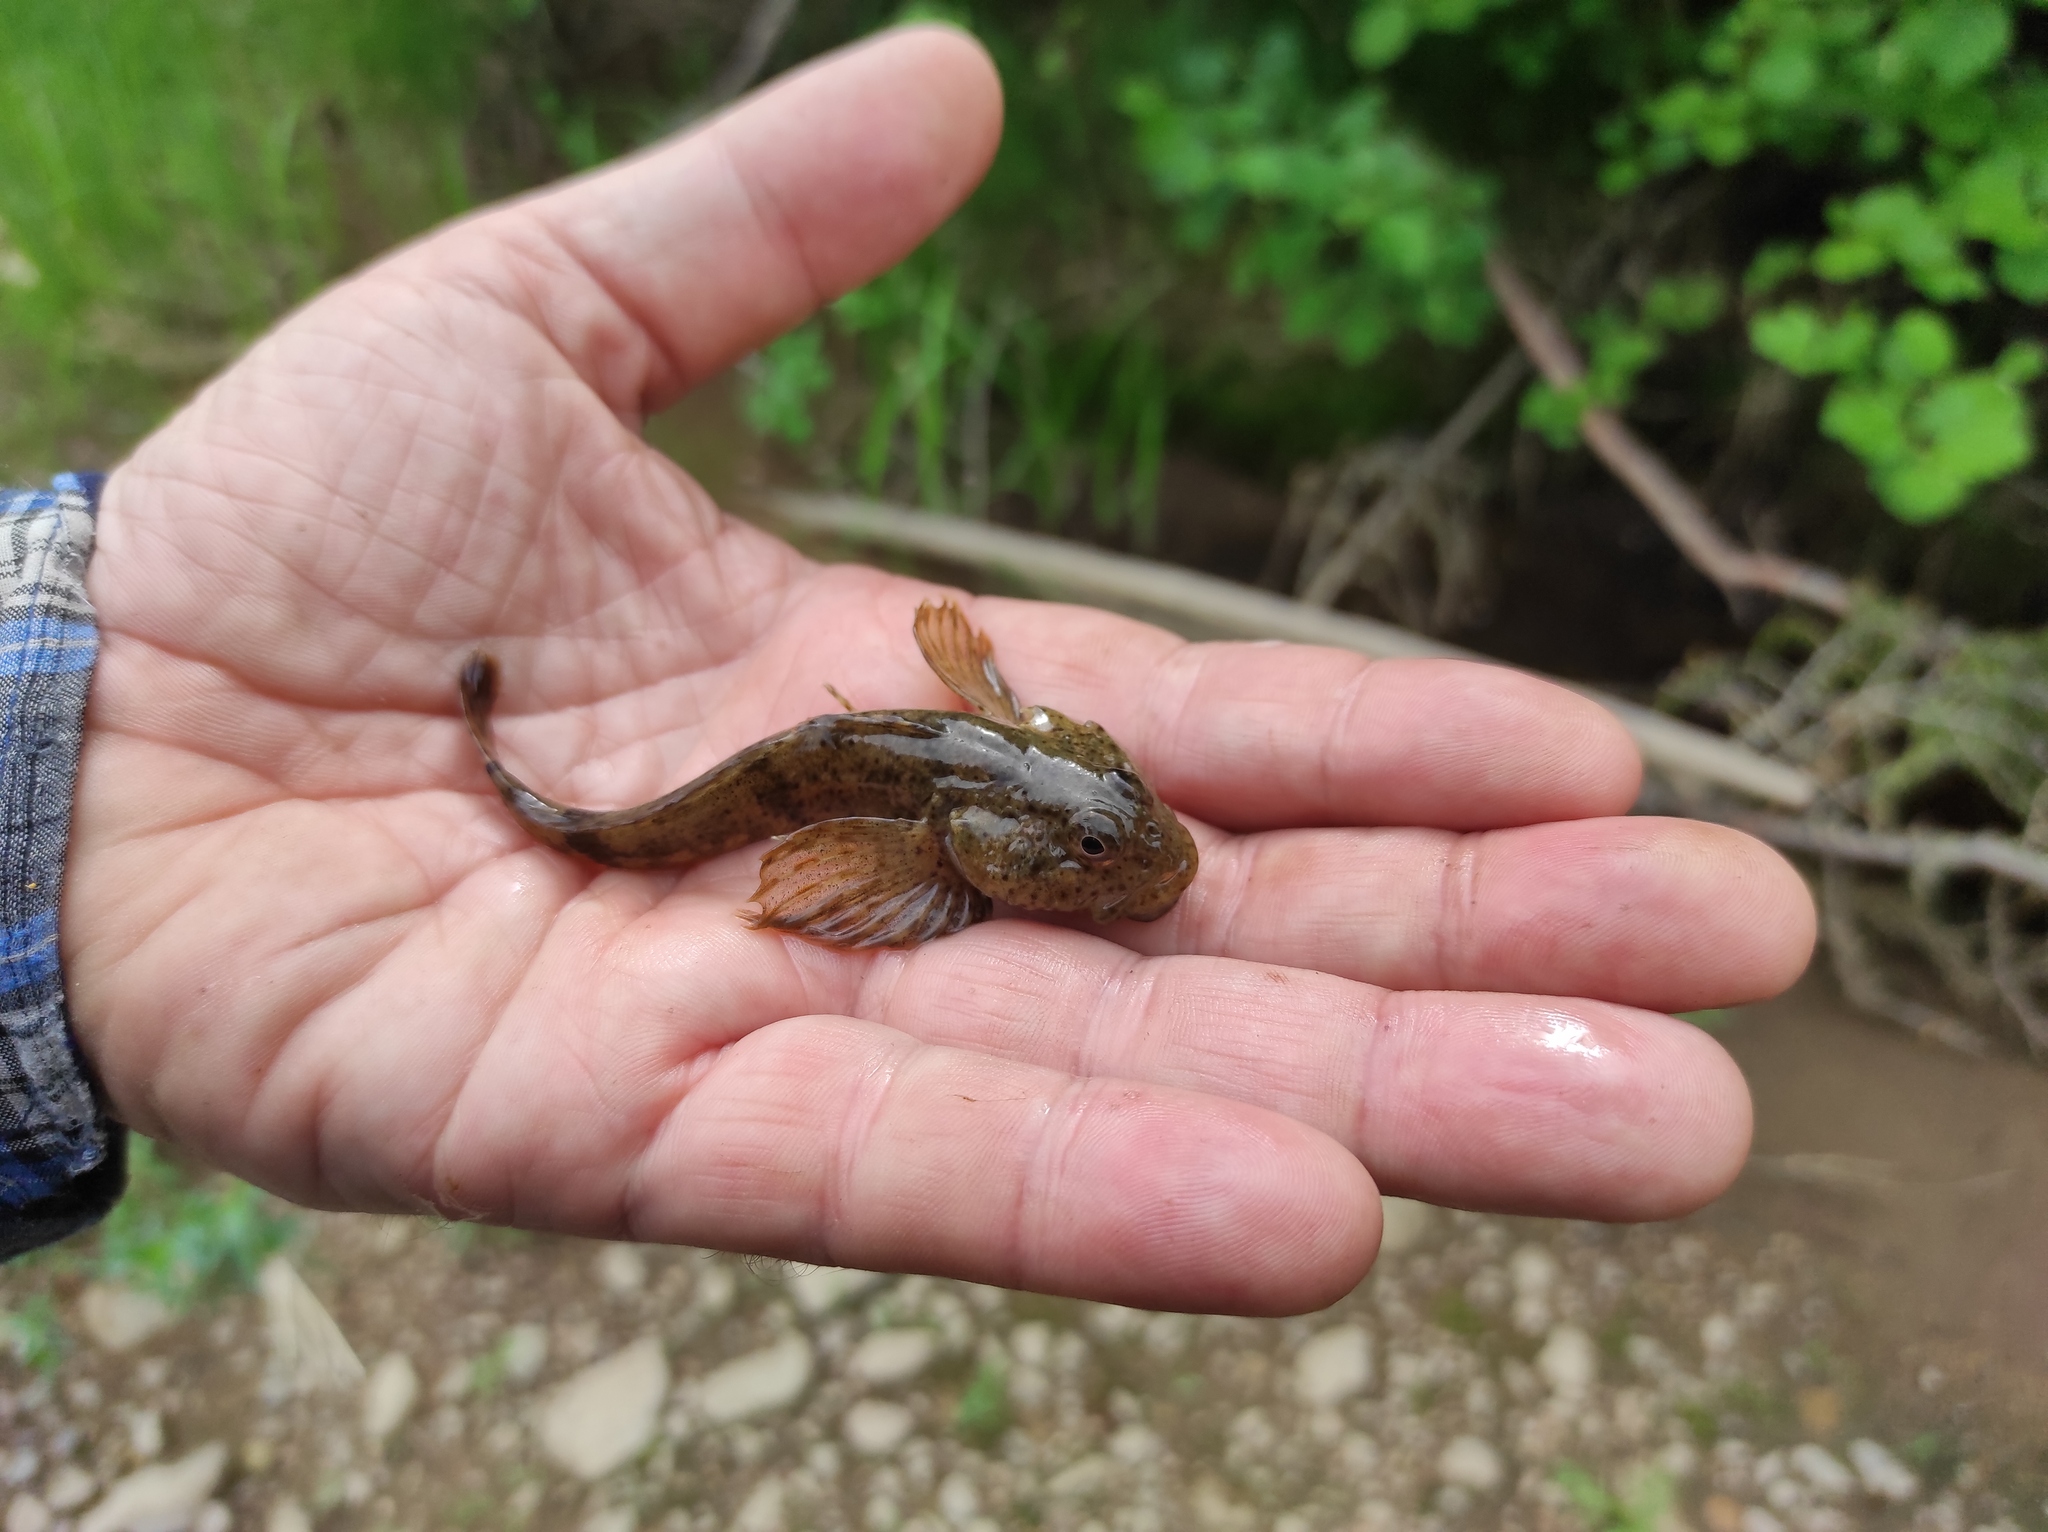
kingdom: Animalia
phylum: Chordata
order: Scorpaeniformes
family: Cottidae
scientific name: Cottidae
